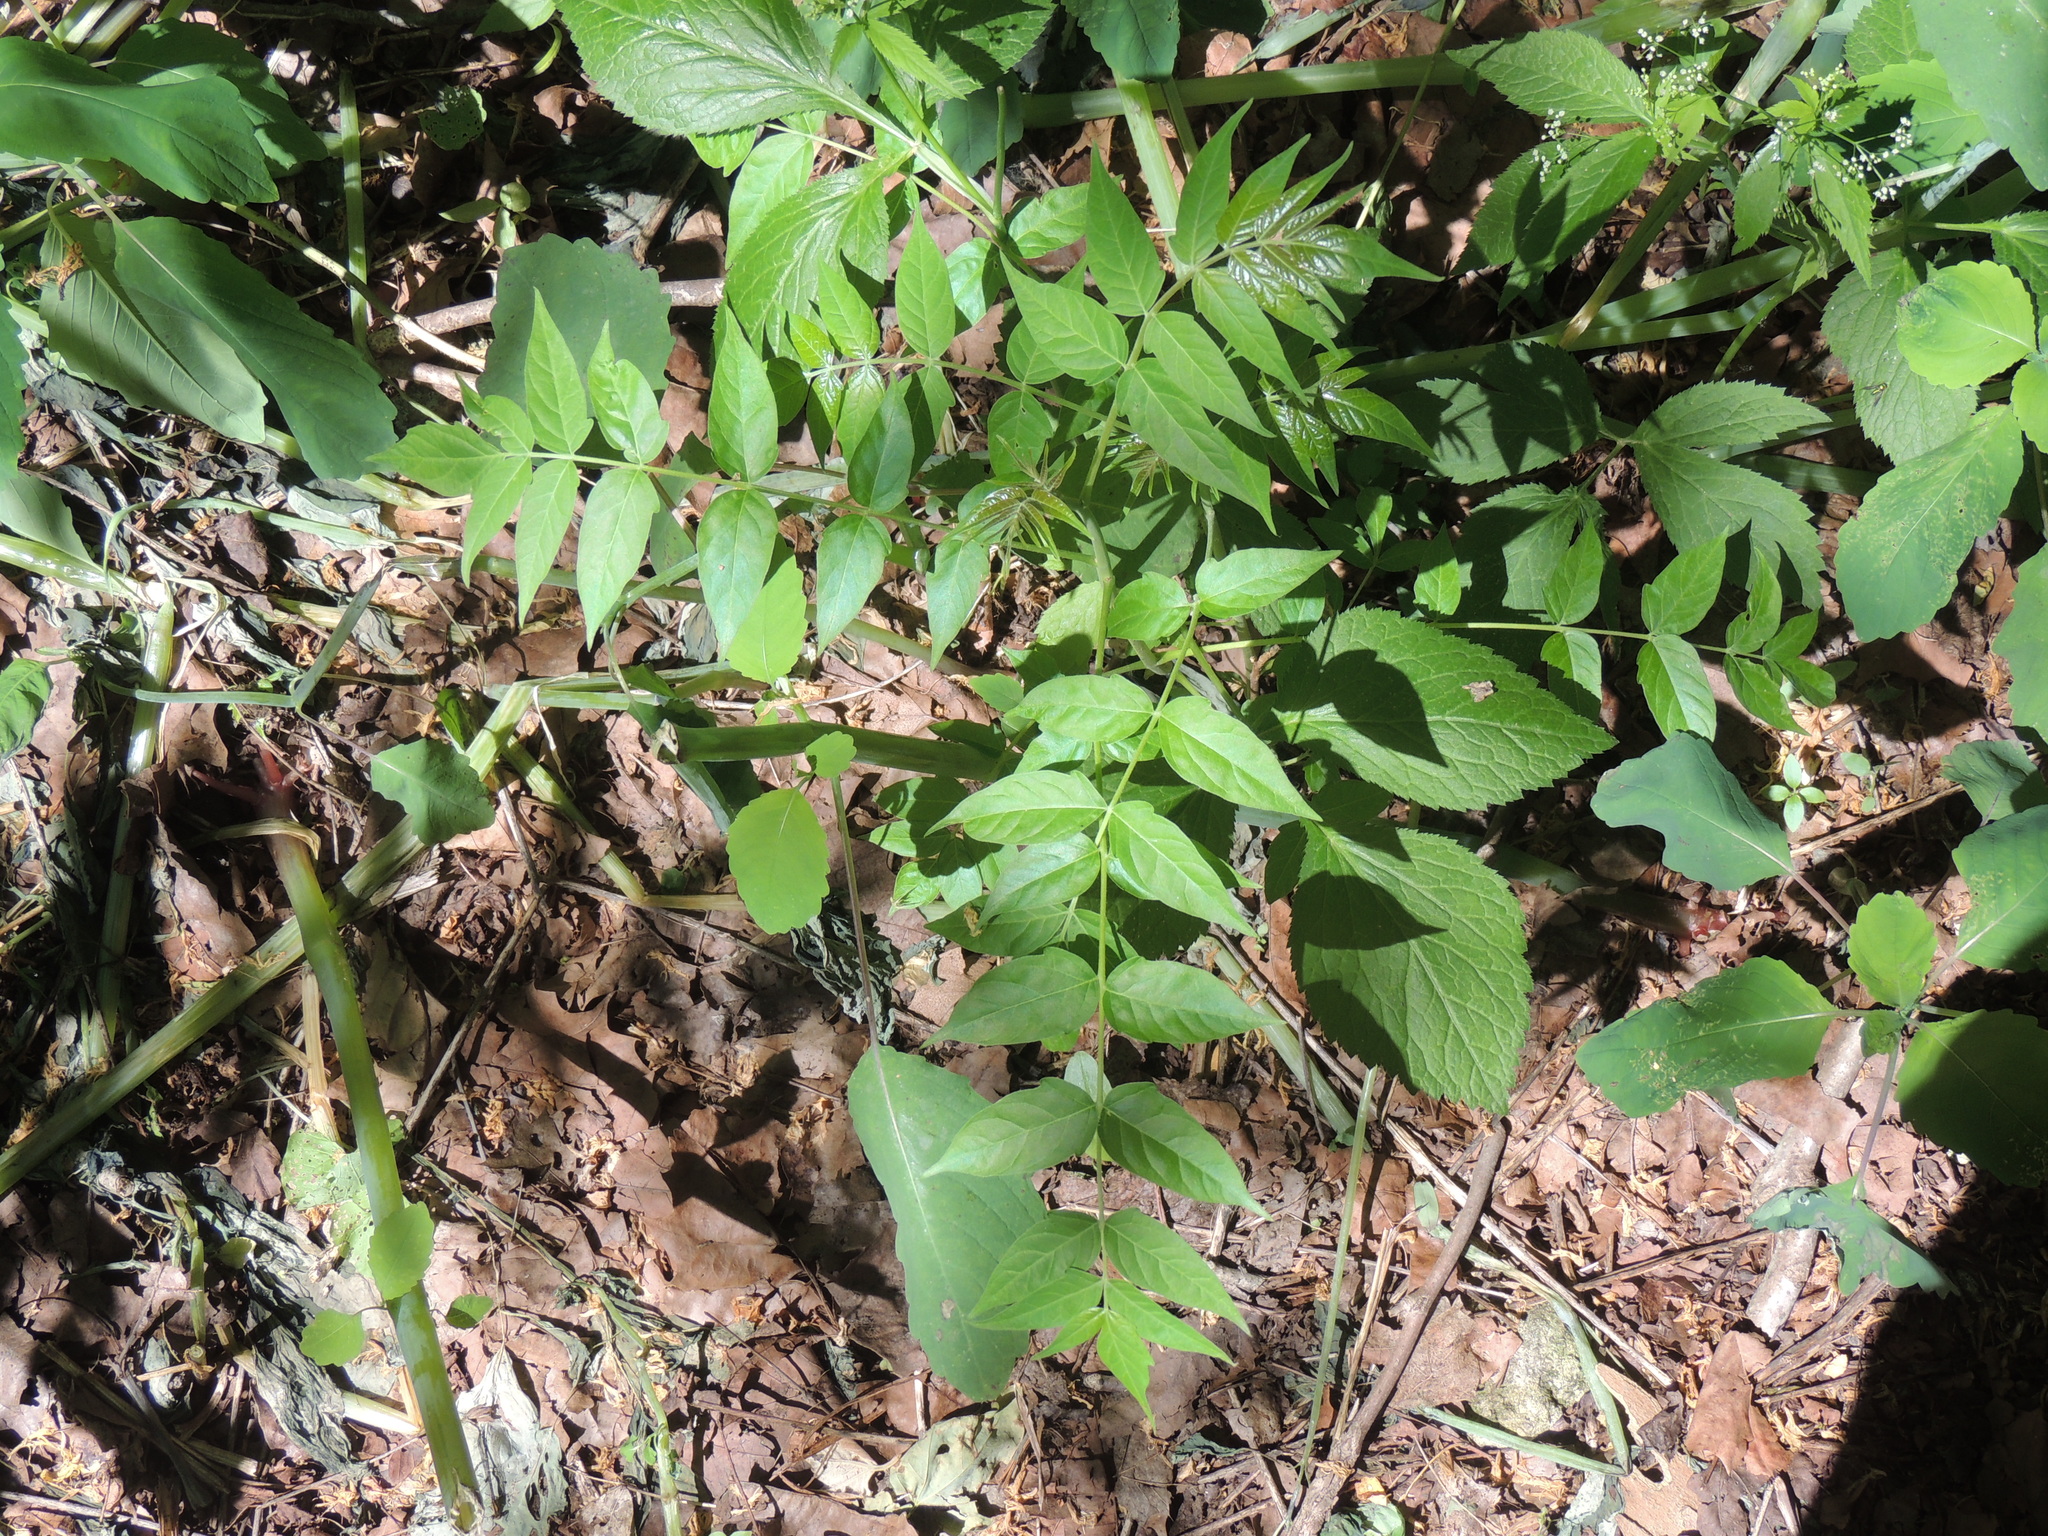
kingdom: Plantae
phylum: Tracheophyta
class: Magnoliopsida
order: Sapindales
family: Simaroubaceae
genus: Ailanthus
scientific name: Ailanthus altissima
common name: Tree-of-heaven
